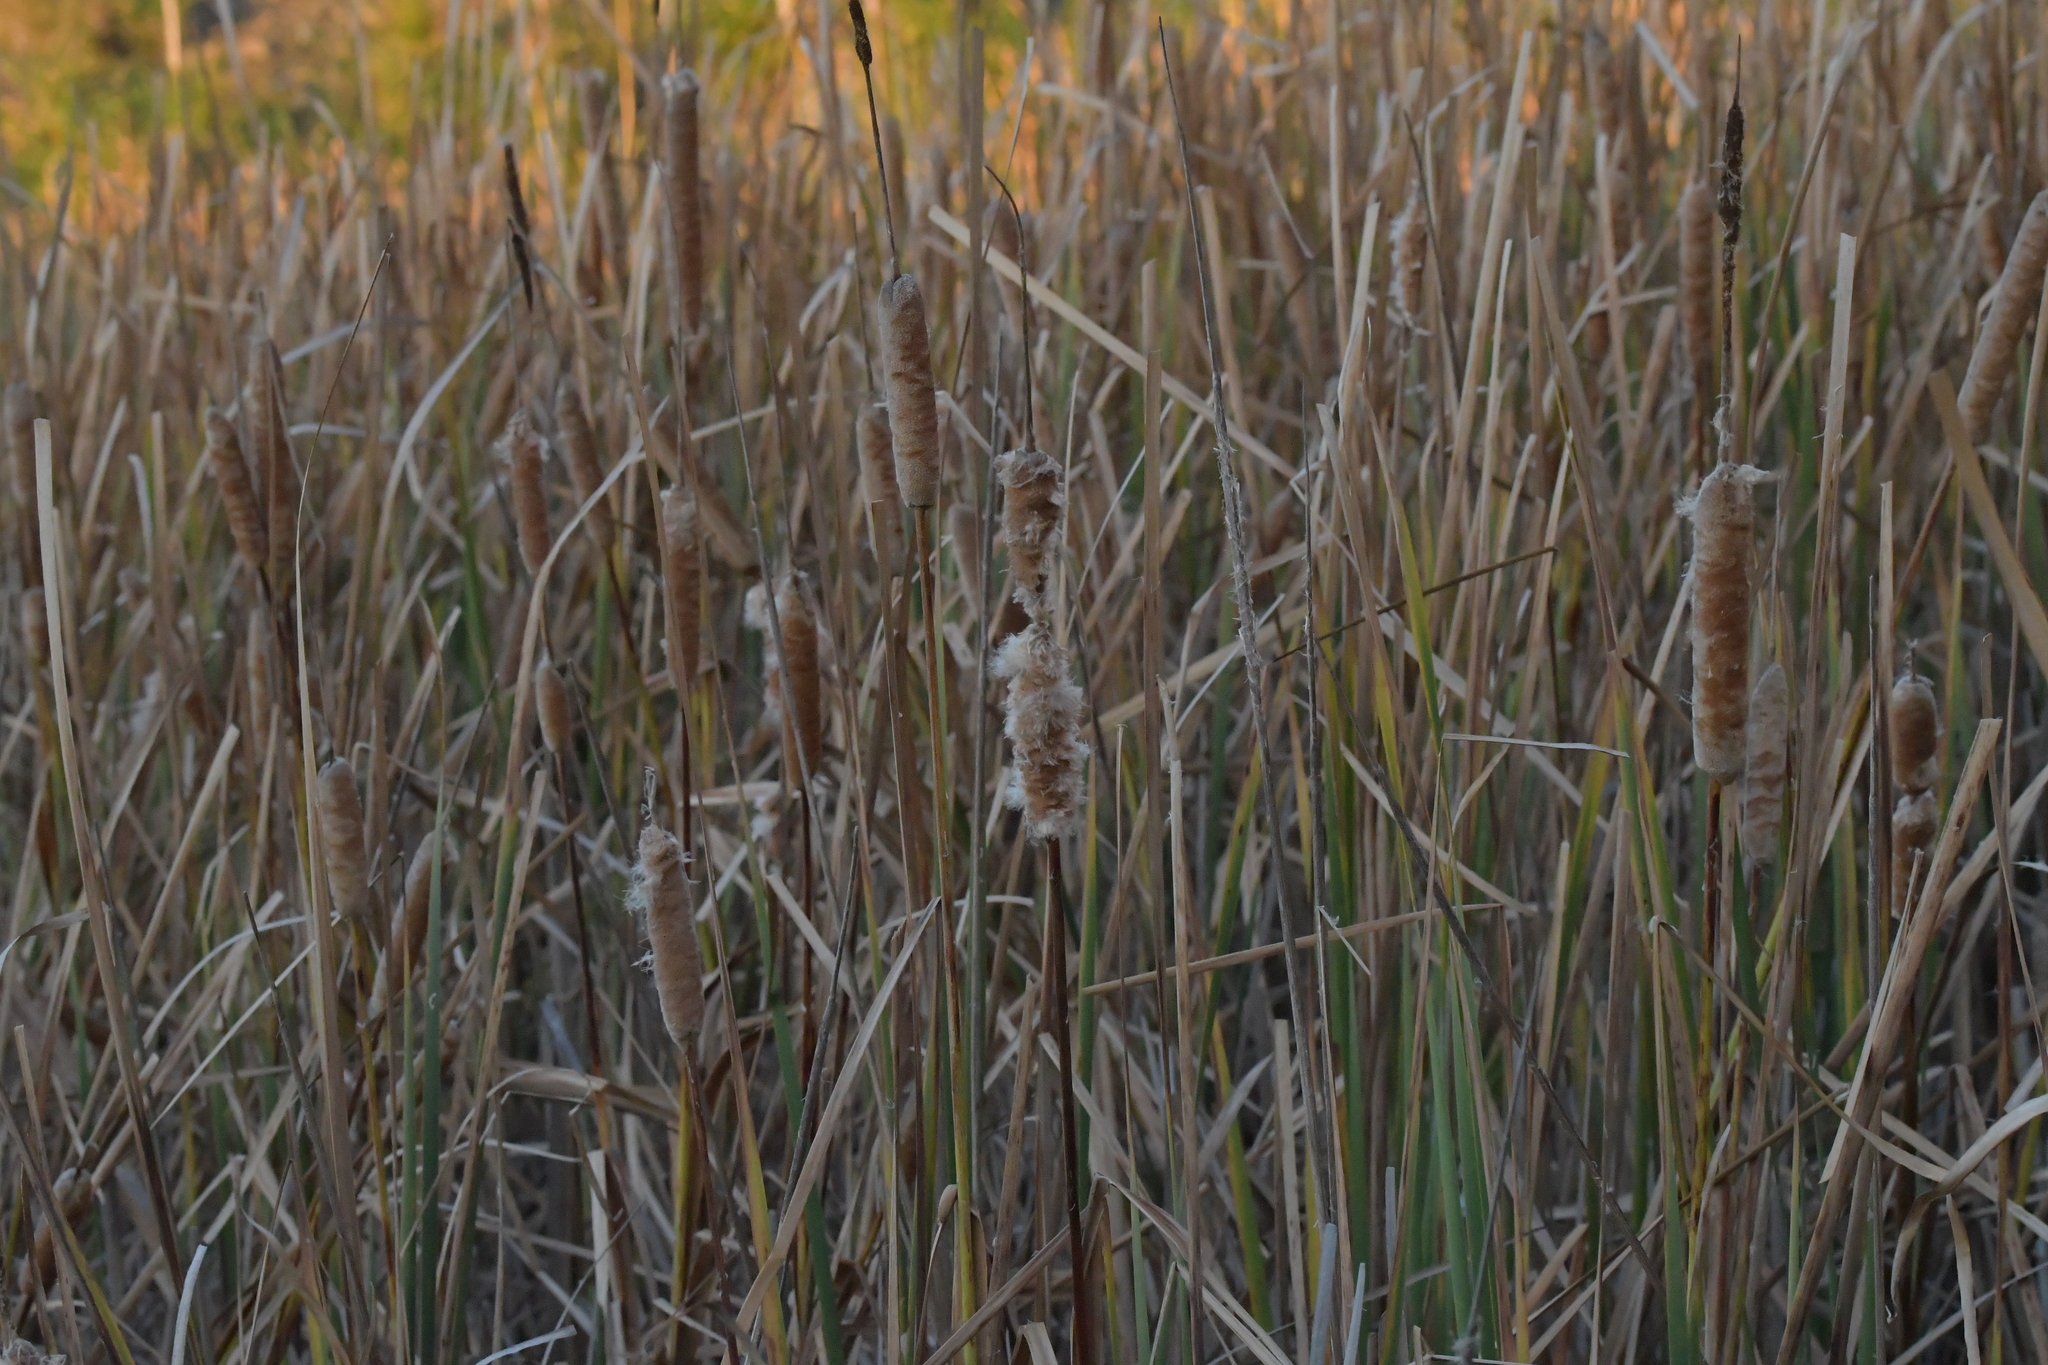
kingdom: Plantae
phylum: Tracheophyta
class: Liliopsida
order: Poales
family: Typhaceae
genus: Typha
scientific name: Typha orientalis
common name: Bullrush
